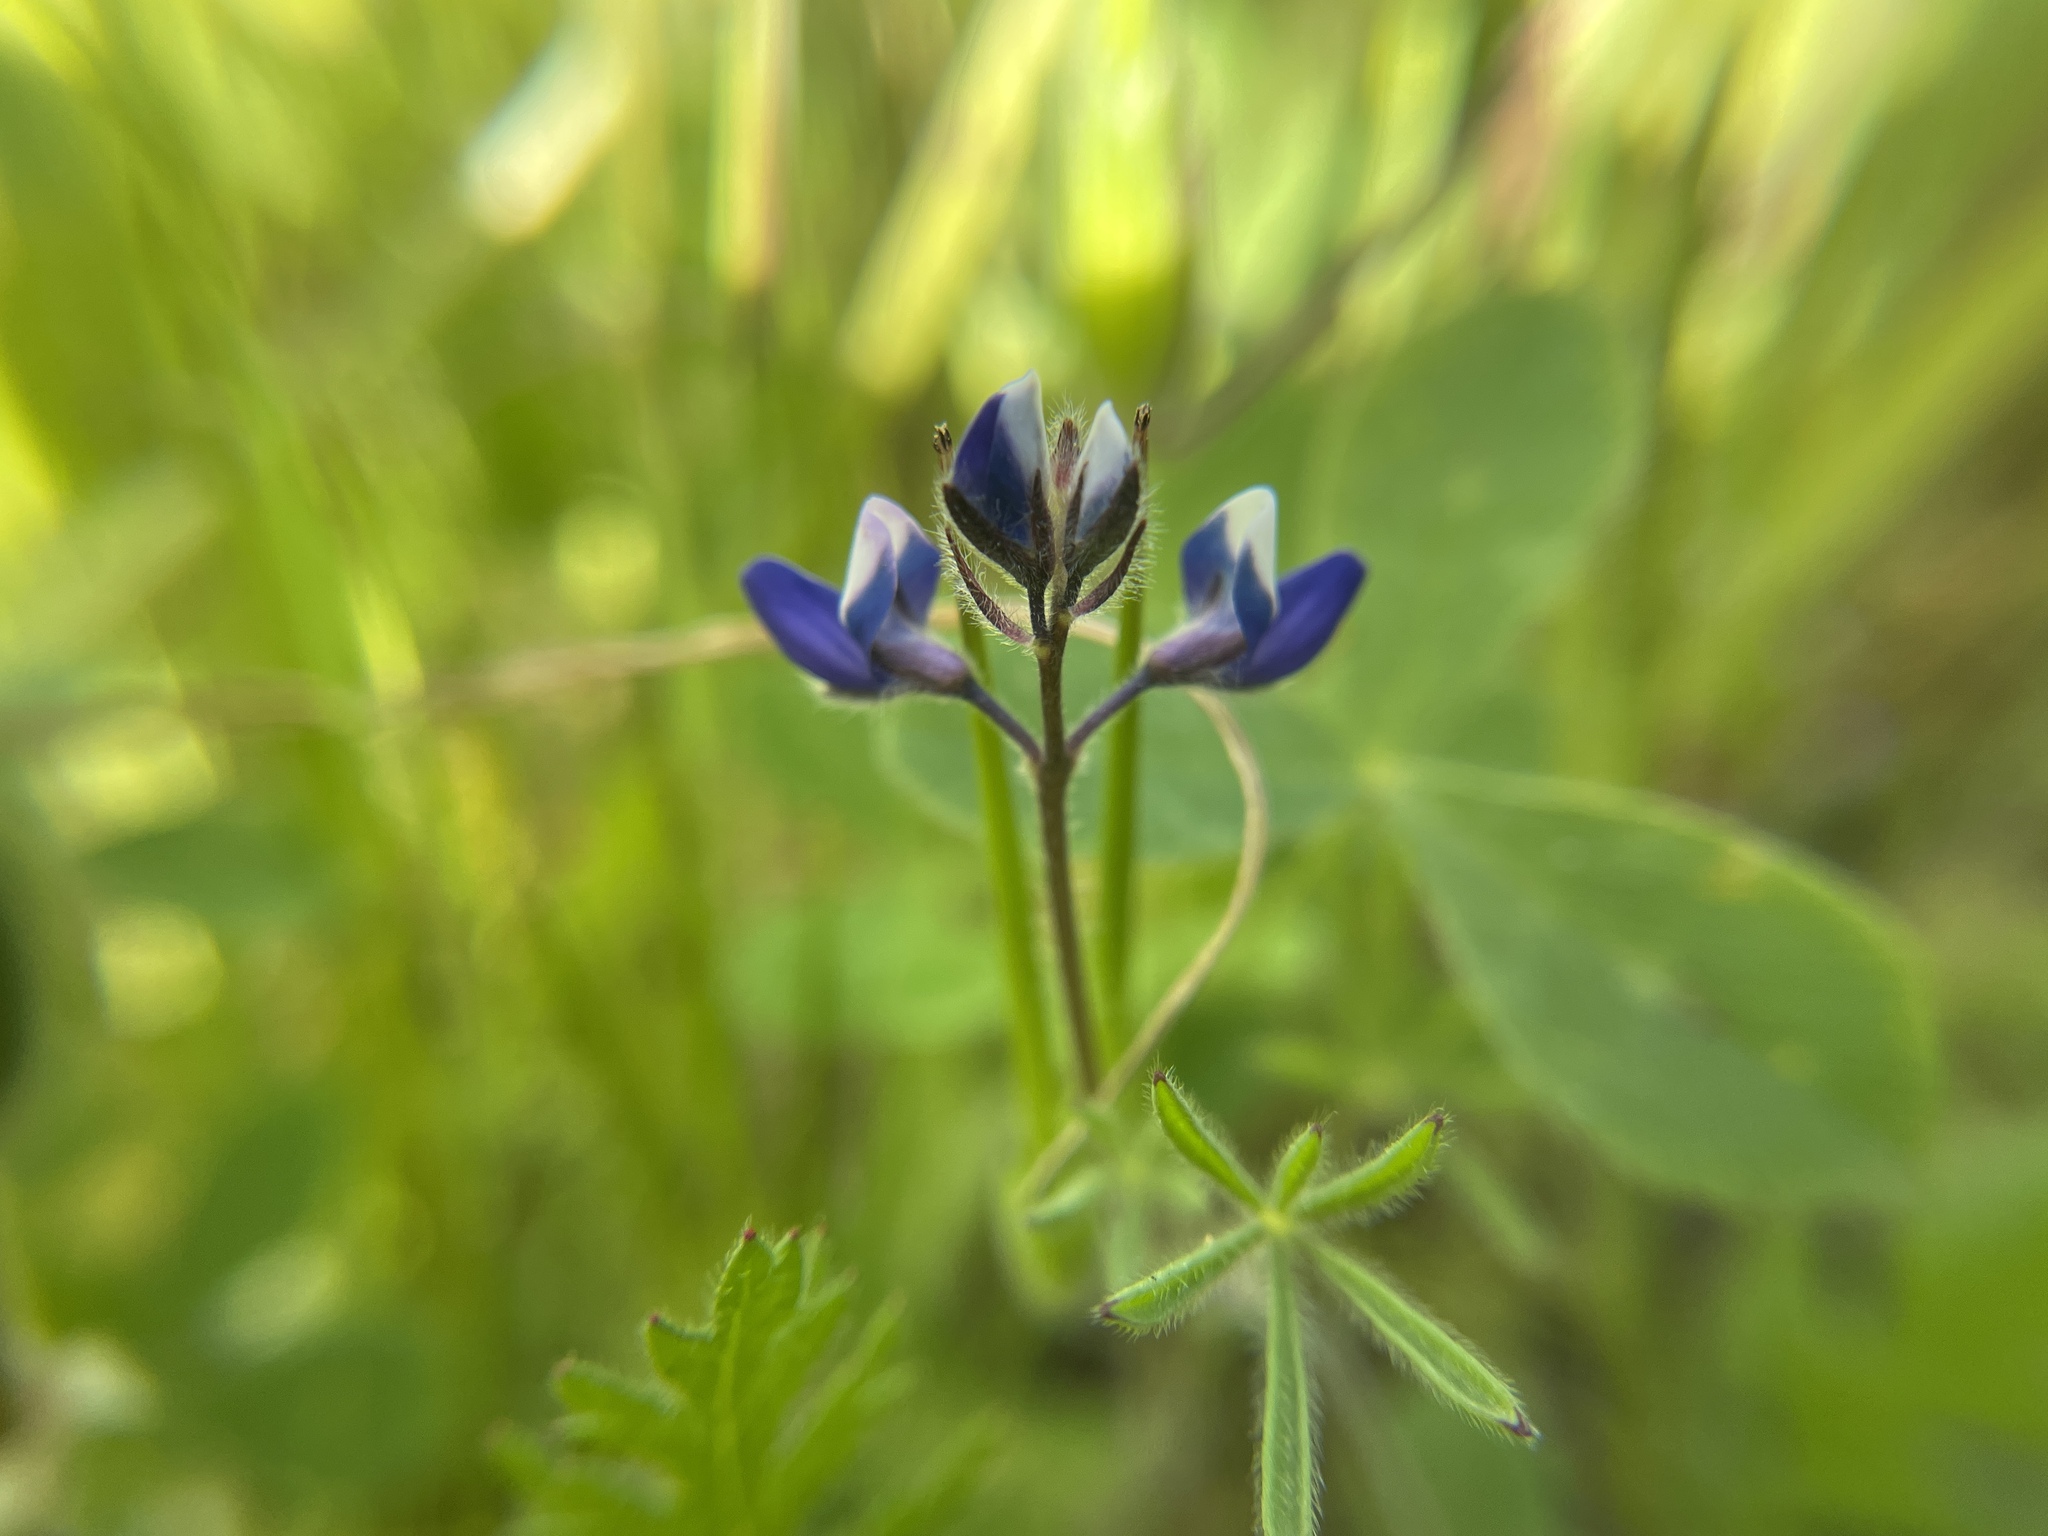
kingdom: Plantae
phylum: Tracheophyta
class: Magnoliopsida
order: Fabales
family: Fabaceae
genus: Lupinus
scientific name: Lupinus bicolor
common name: Miniature lupine
